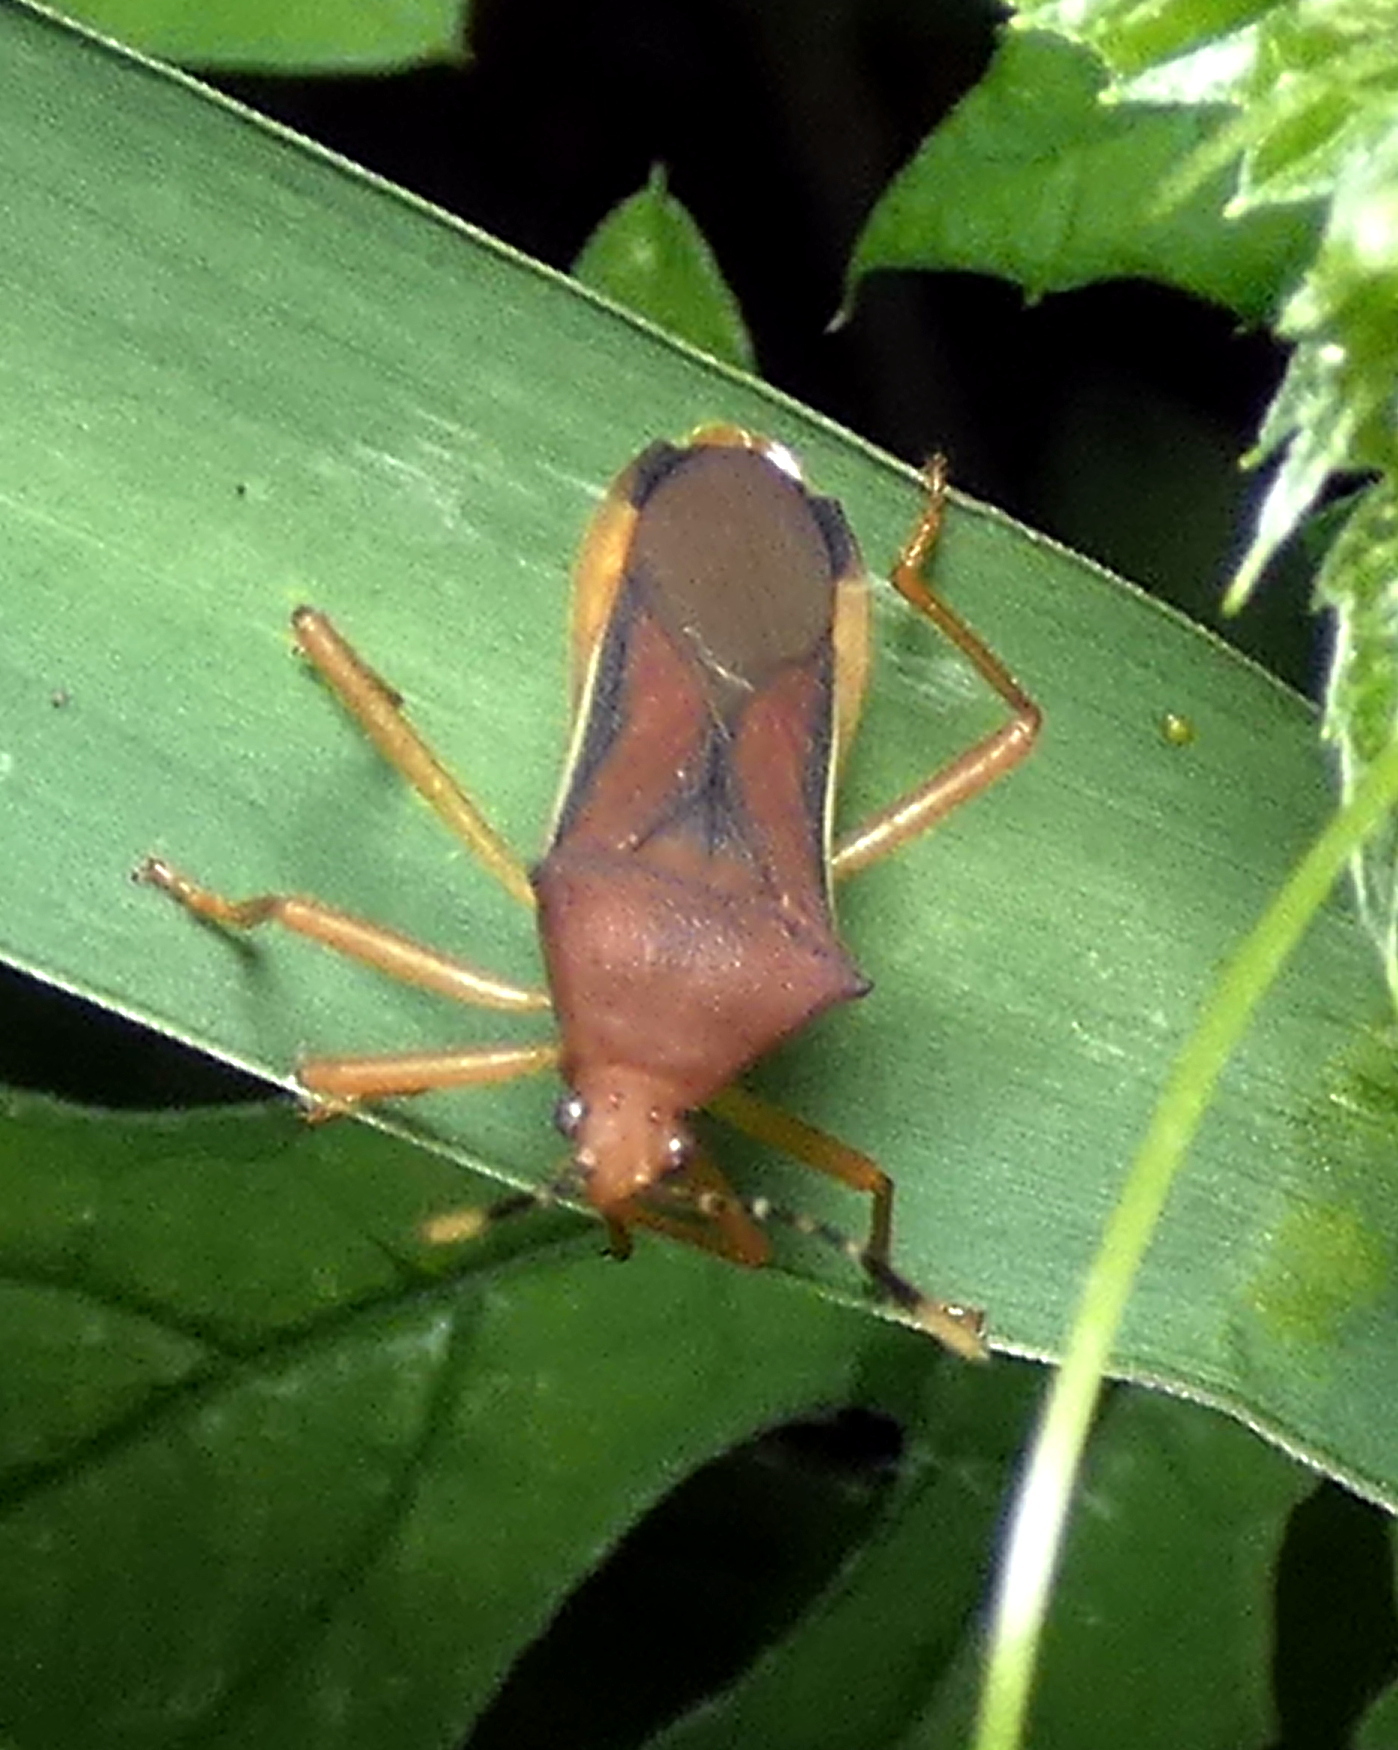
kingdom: Animalia
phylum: Arthropoda
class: Insecta
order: Hemiptera
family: Coreidae
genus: Anasa
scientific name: Anasa varicornis
